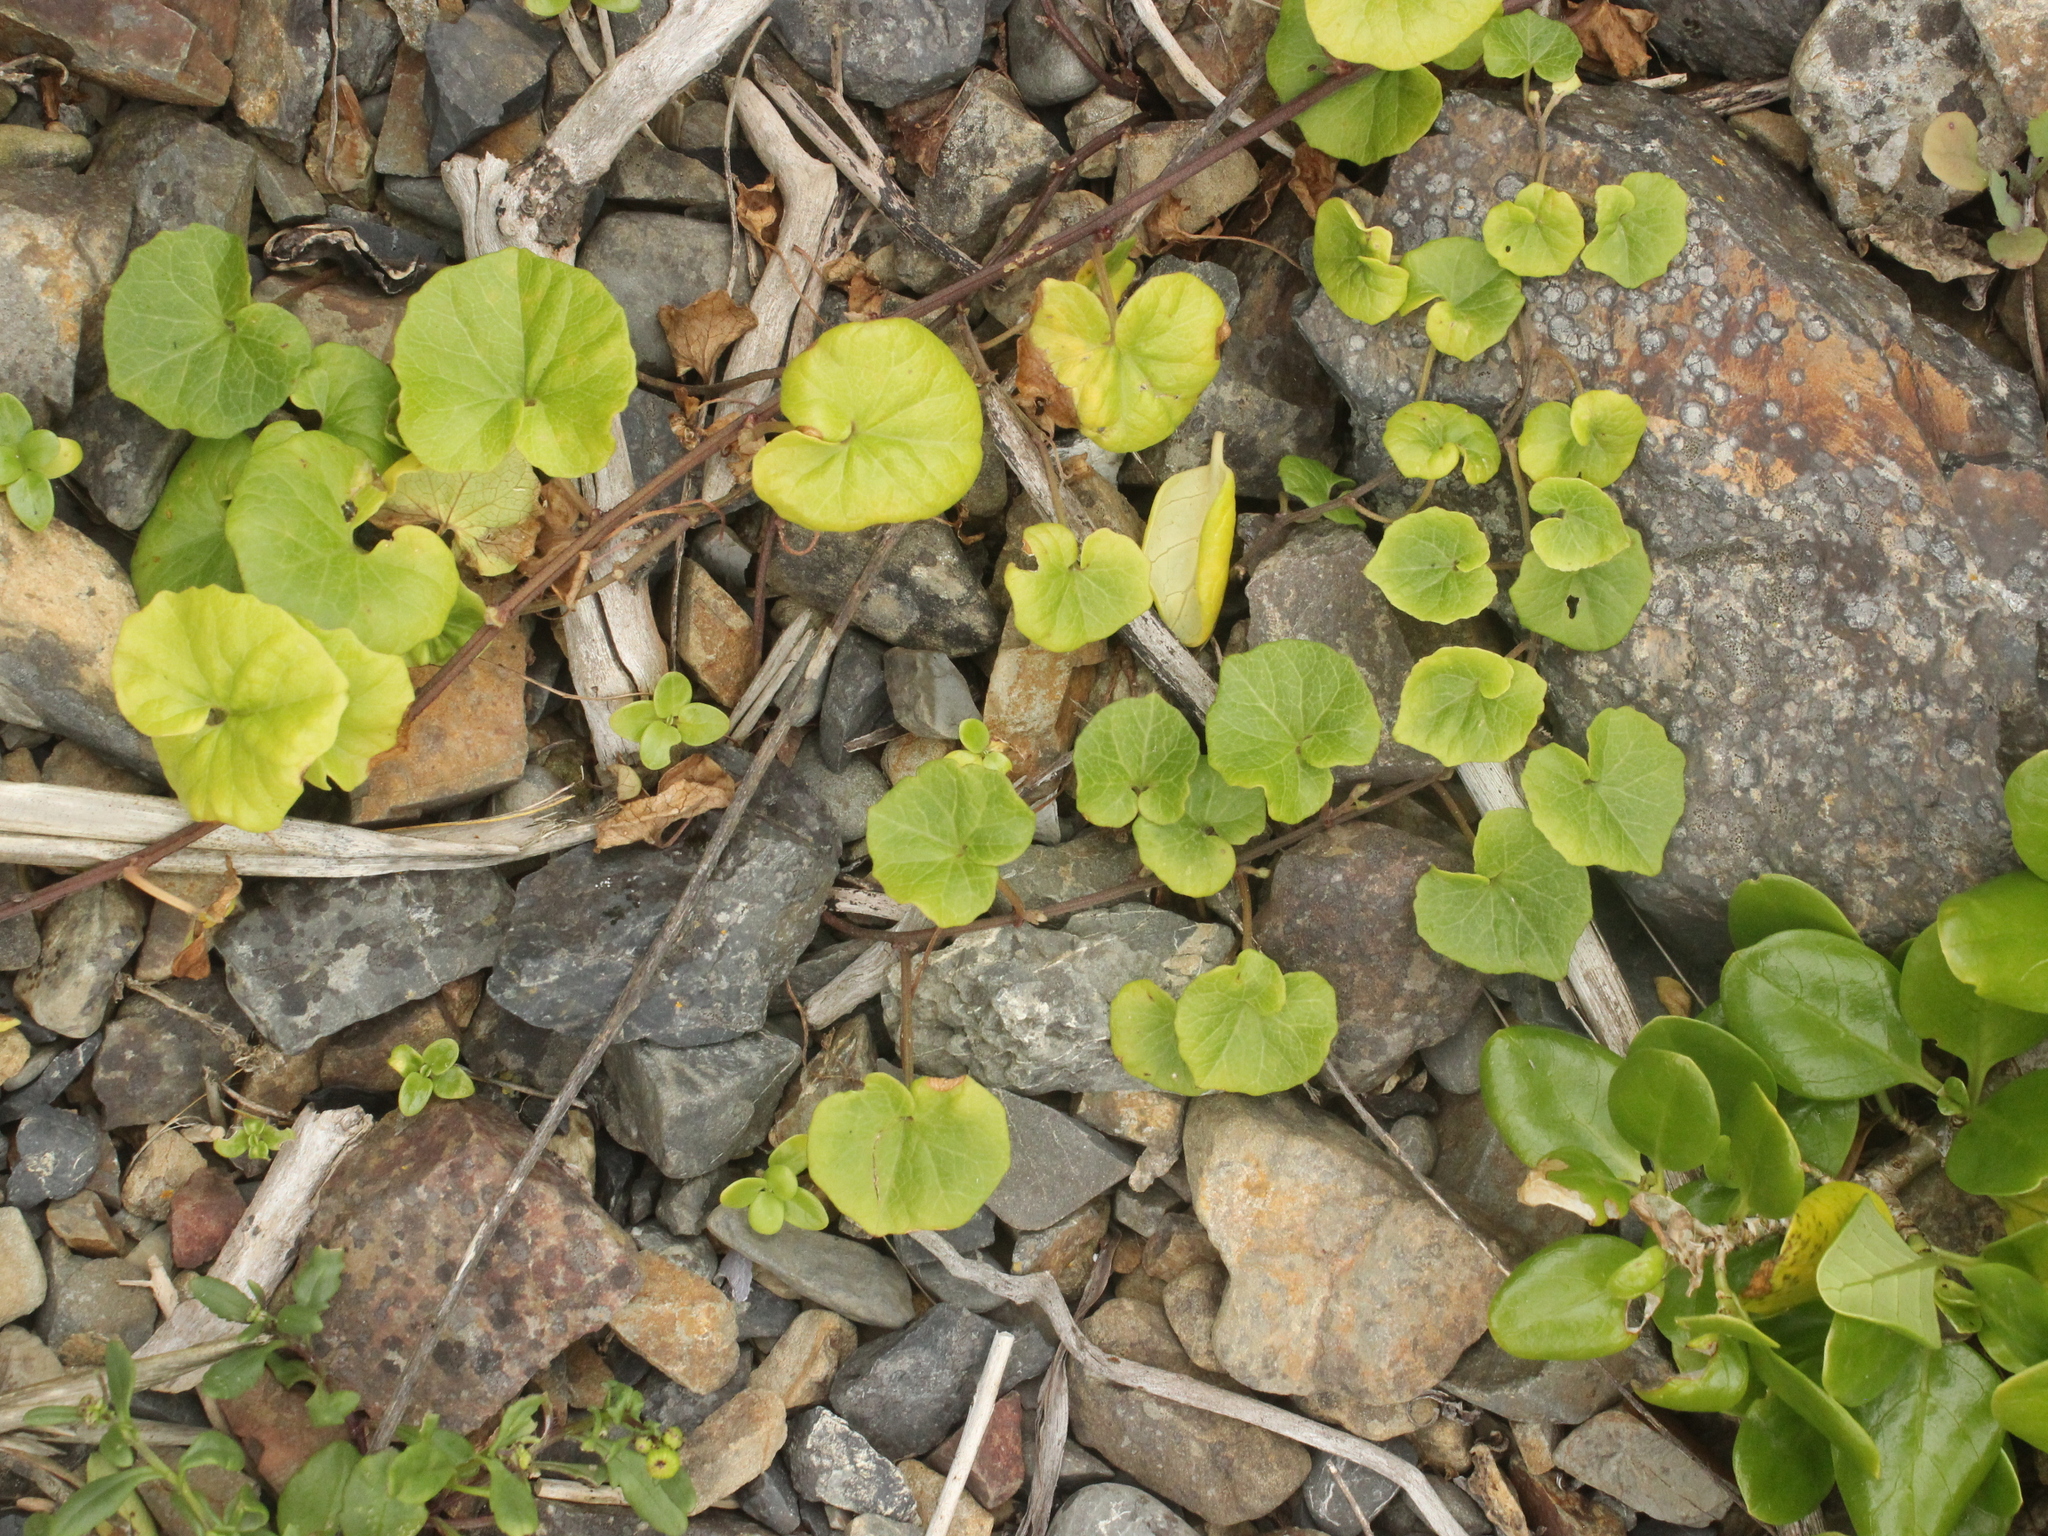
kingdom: Plantae
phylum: Tracheophyta
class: Magnoliopsida
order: Solanales
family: Convolvulaceae
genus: Calystegia
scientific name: Calystegia
